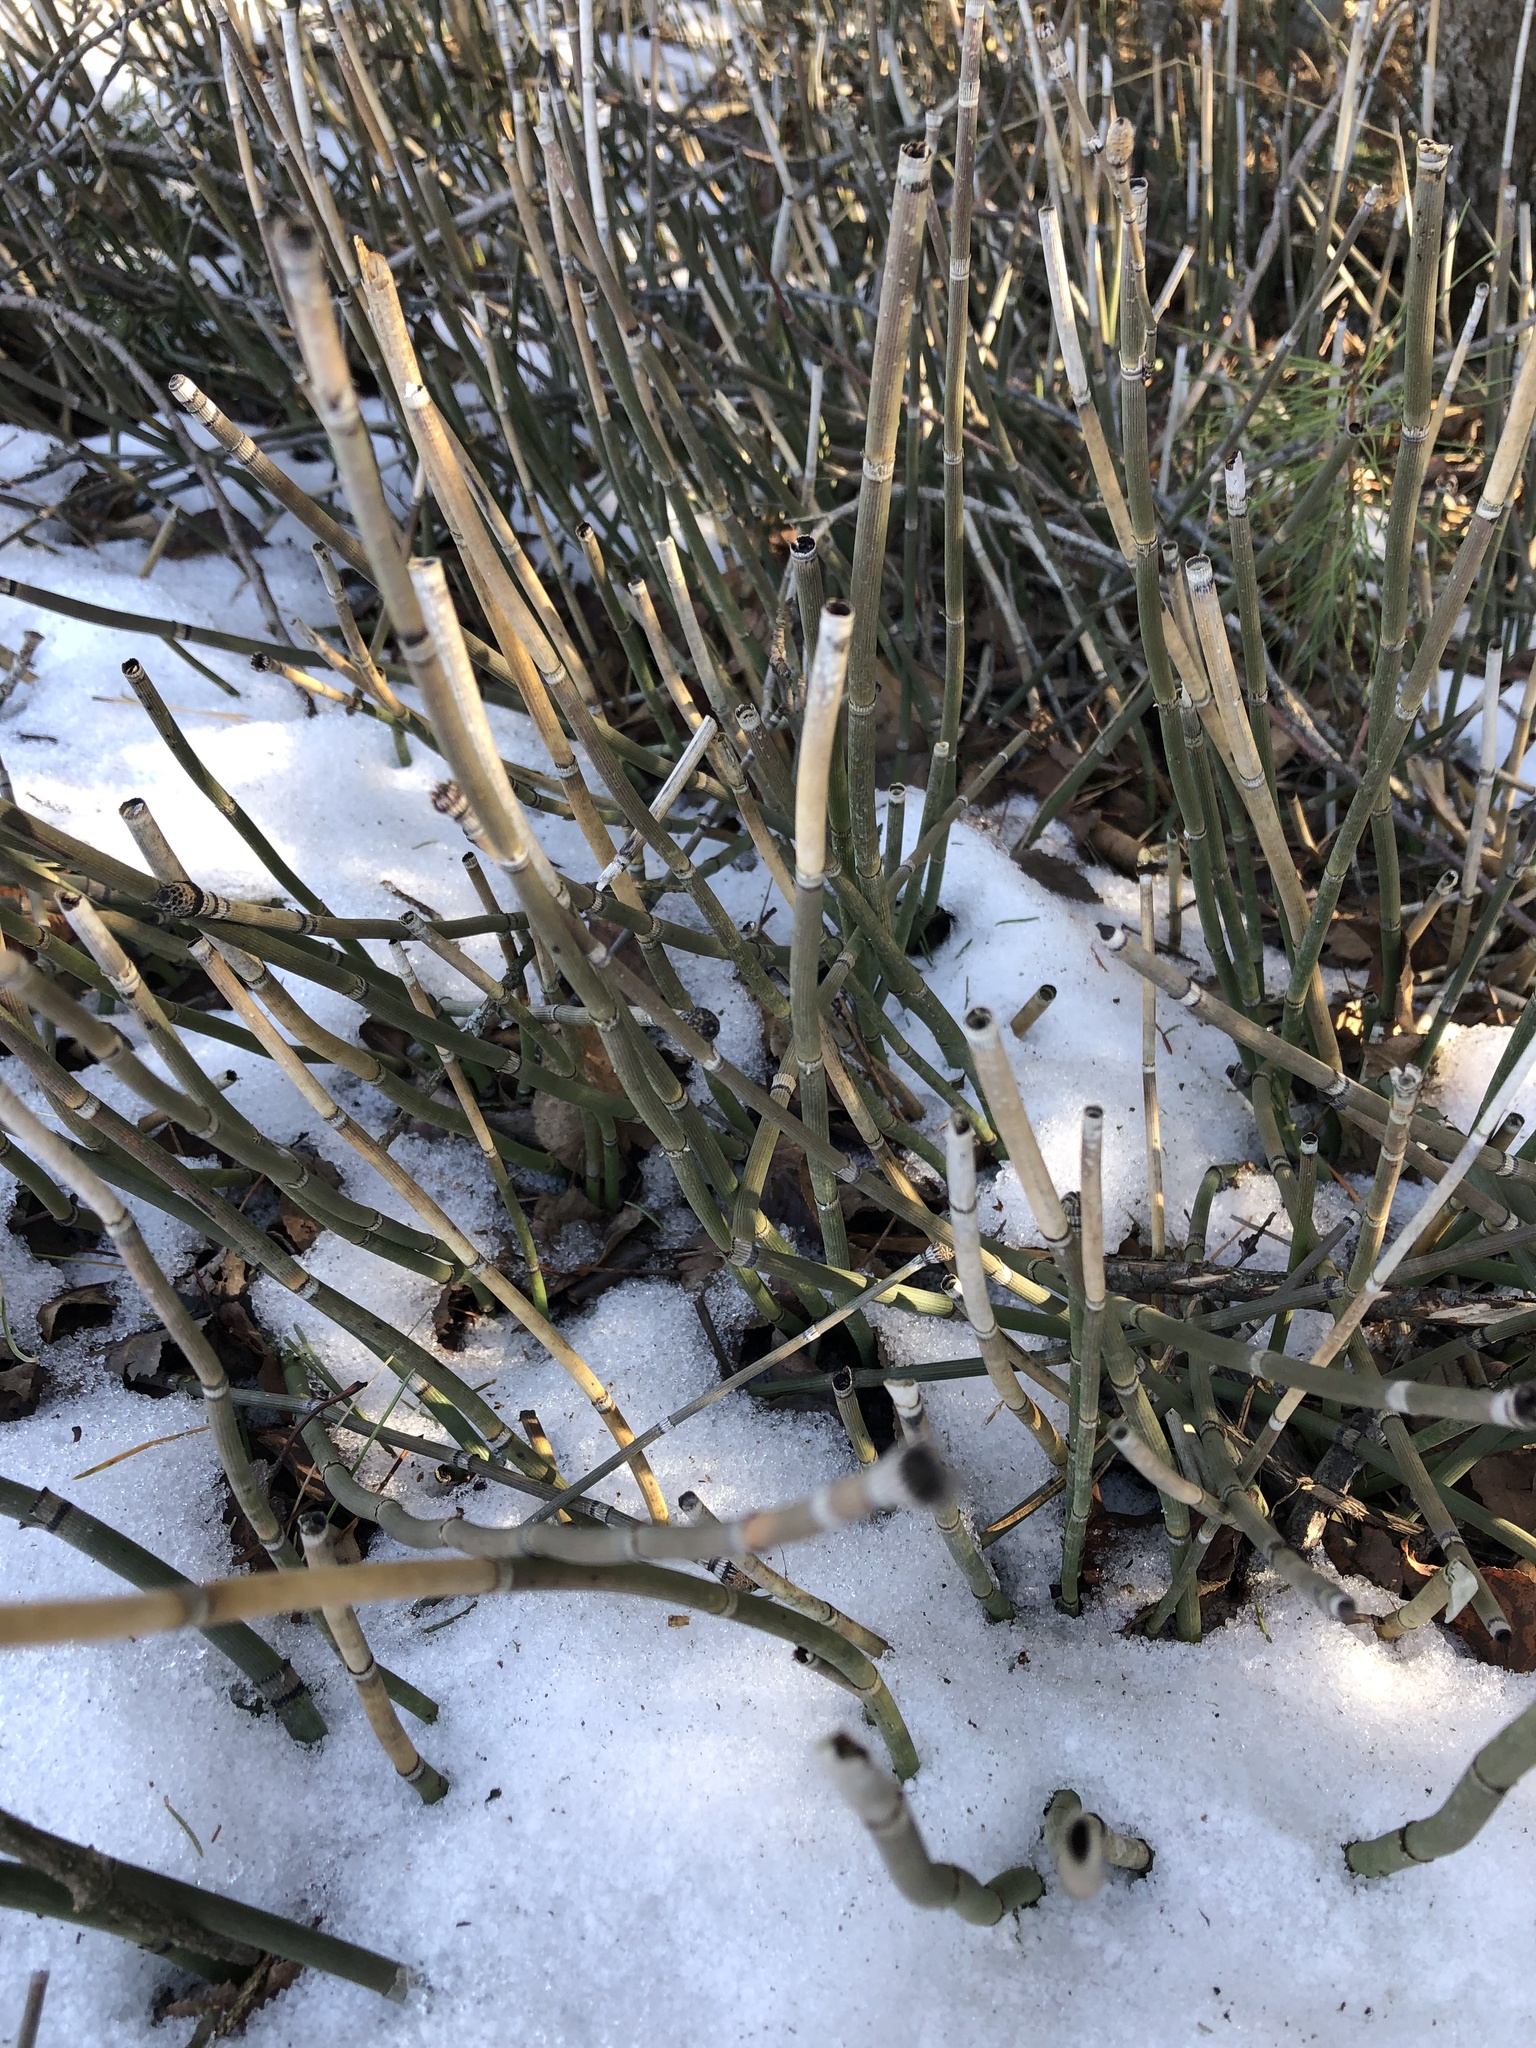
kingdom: Plantae
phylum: Tracheophyta
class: Polypodiopsida
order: Equisetales
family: Equisetaceae
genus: Equisetum
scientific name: Equisetum hyemale
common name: Rough horsetail
